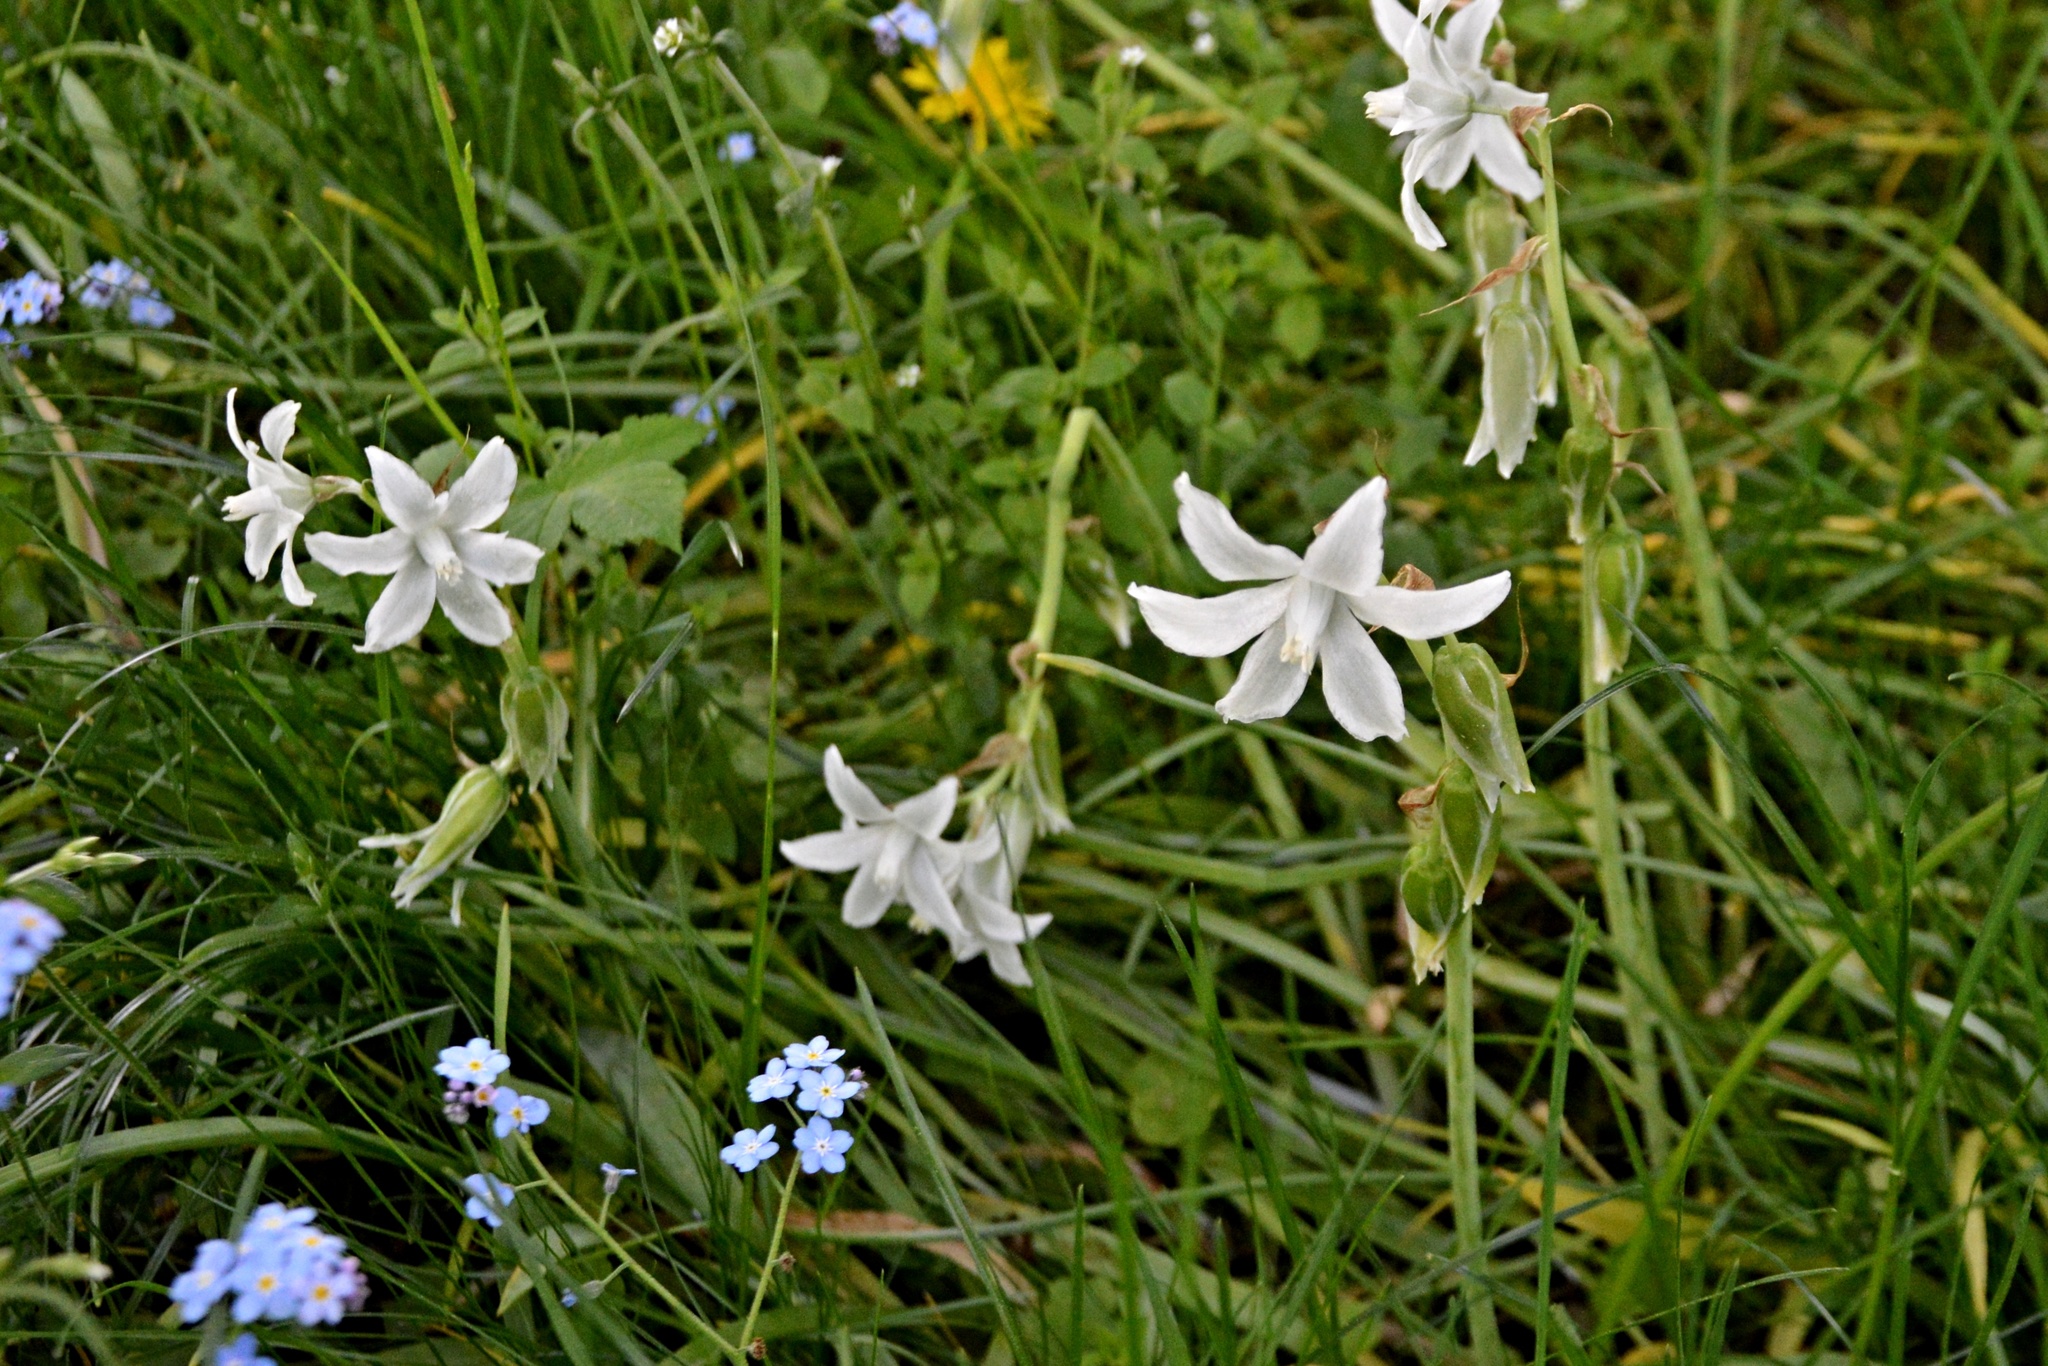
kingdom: Plantae
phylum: Tracheophyta
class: Liliopsida
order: Asparagales
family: Asparagaceae
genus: Ornithogalum
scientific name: Ornithogalum nutans
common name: Drooping star-of-bethlehem
